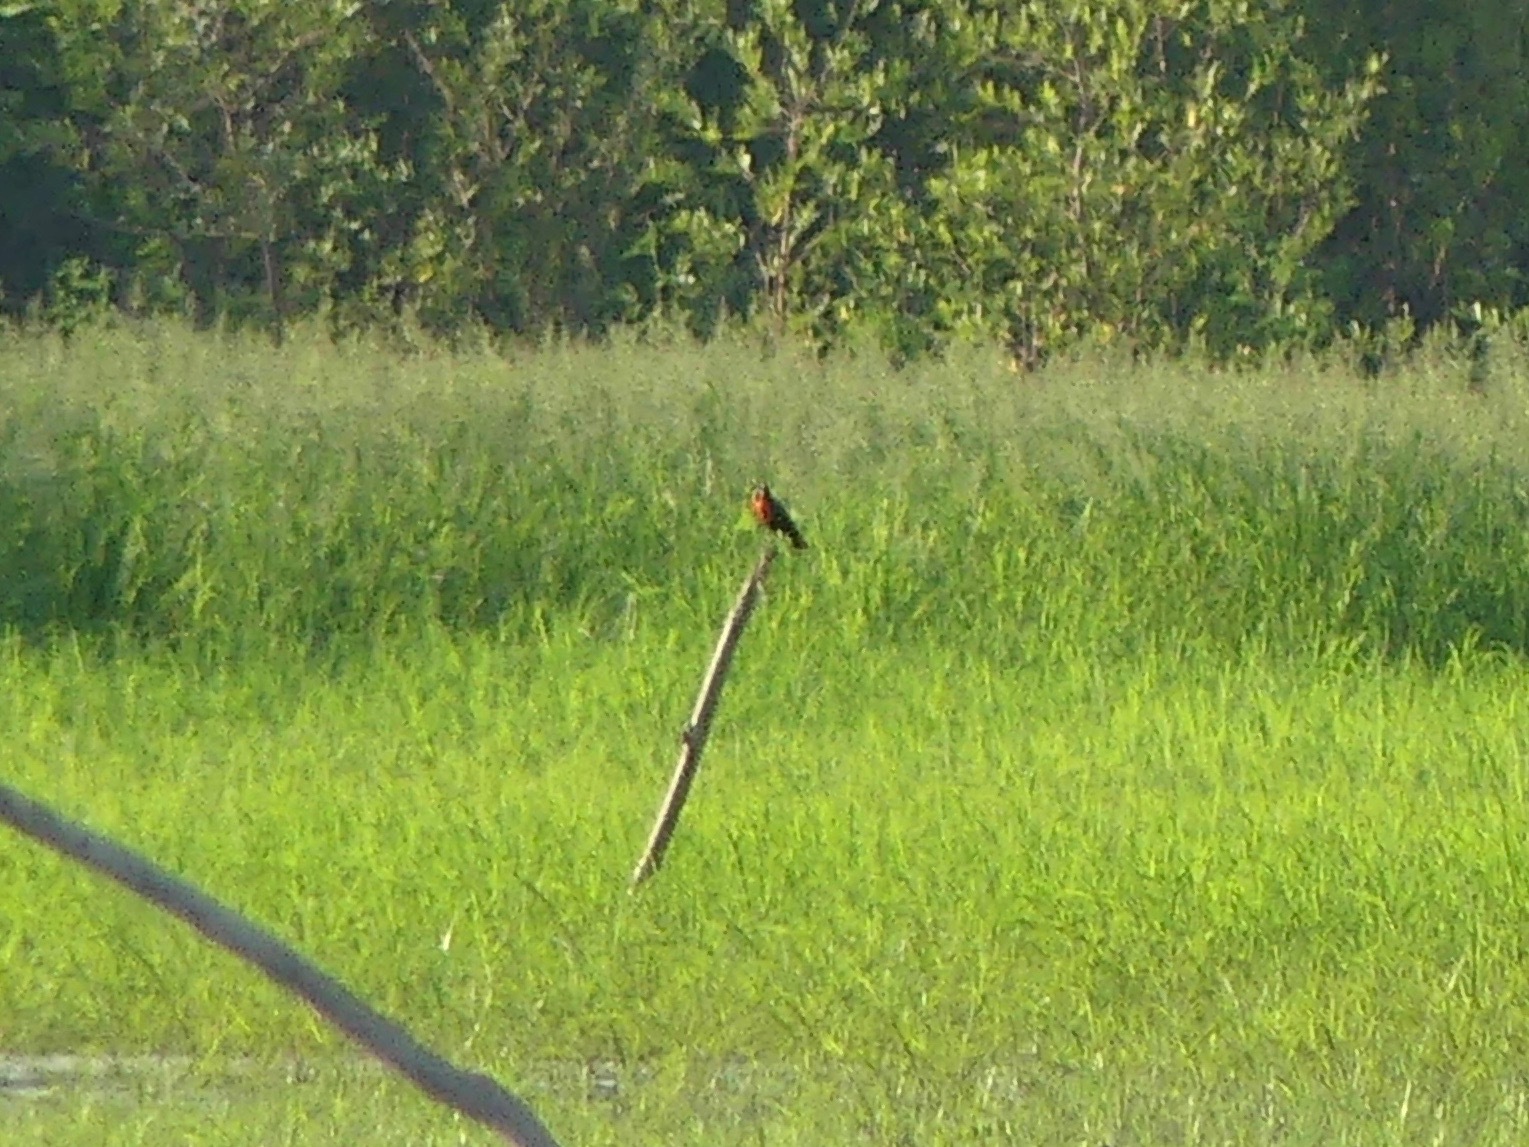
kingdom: Animalia
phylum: Chordata
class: Aves
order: Passeriformes
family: Icteridae
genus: Sturnella
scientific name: Sturnella militaris
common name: Red-breasted blackbird
